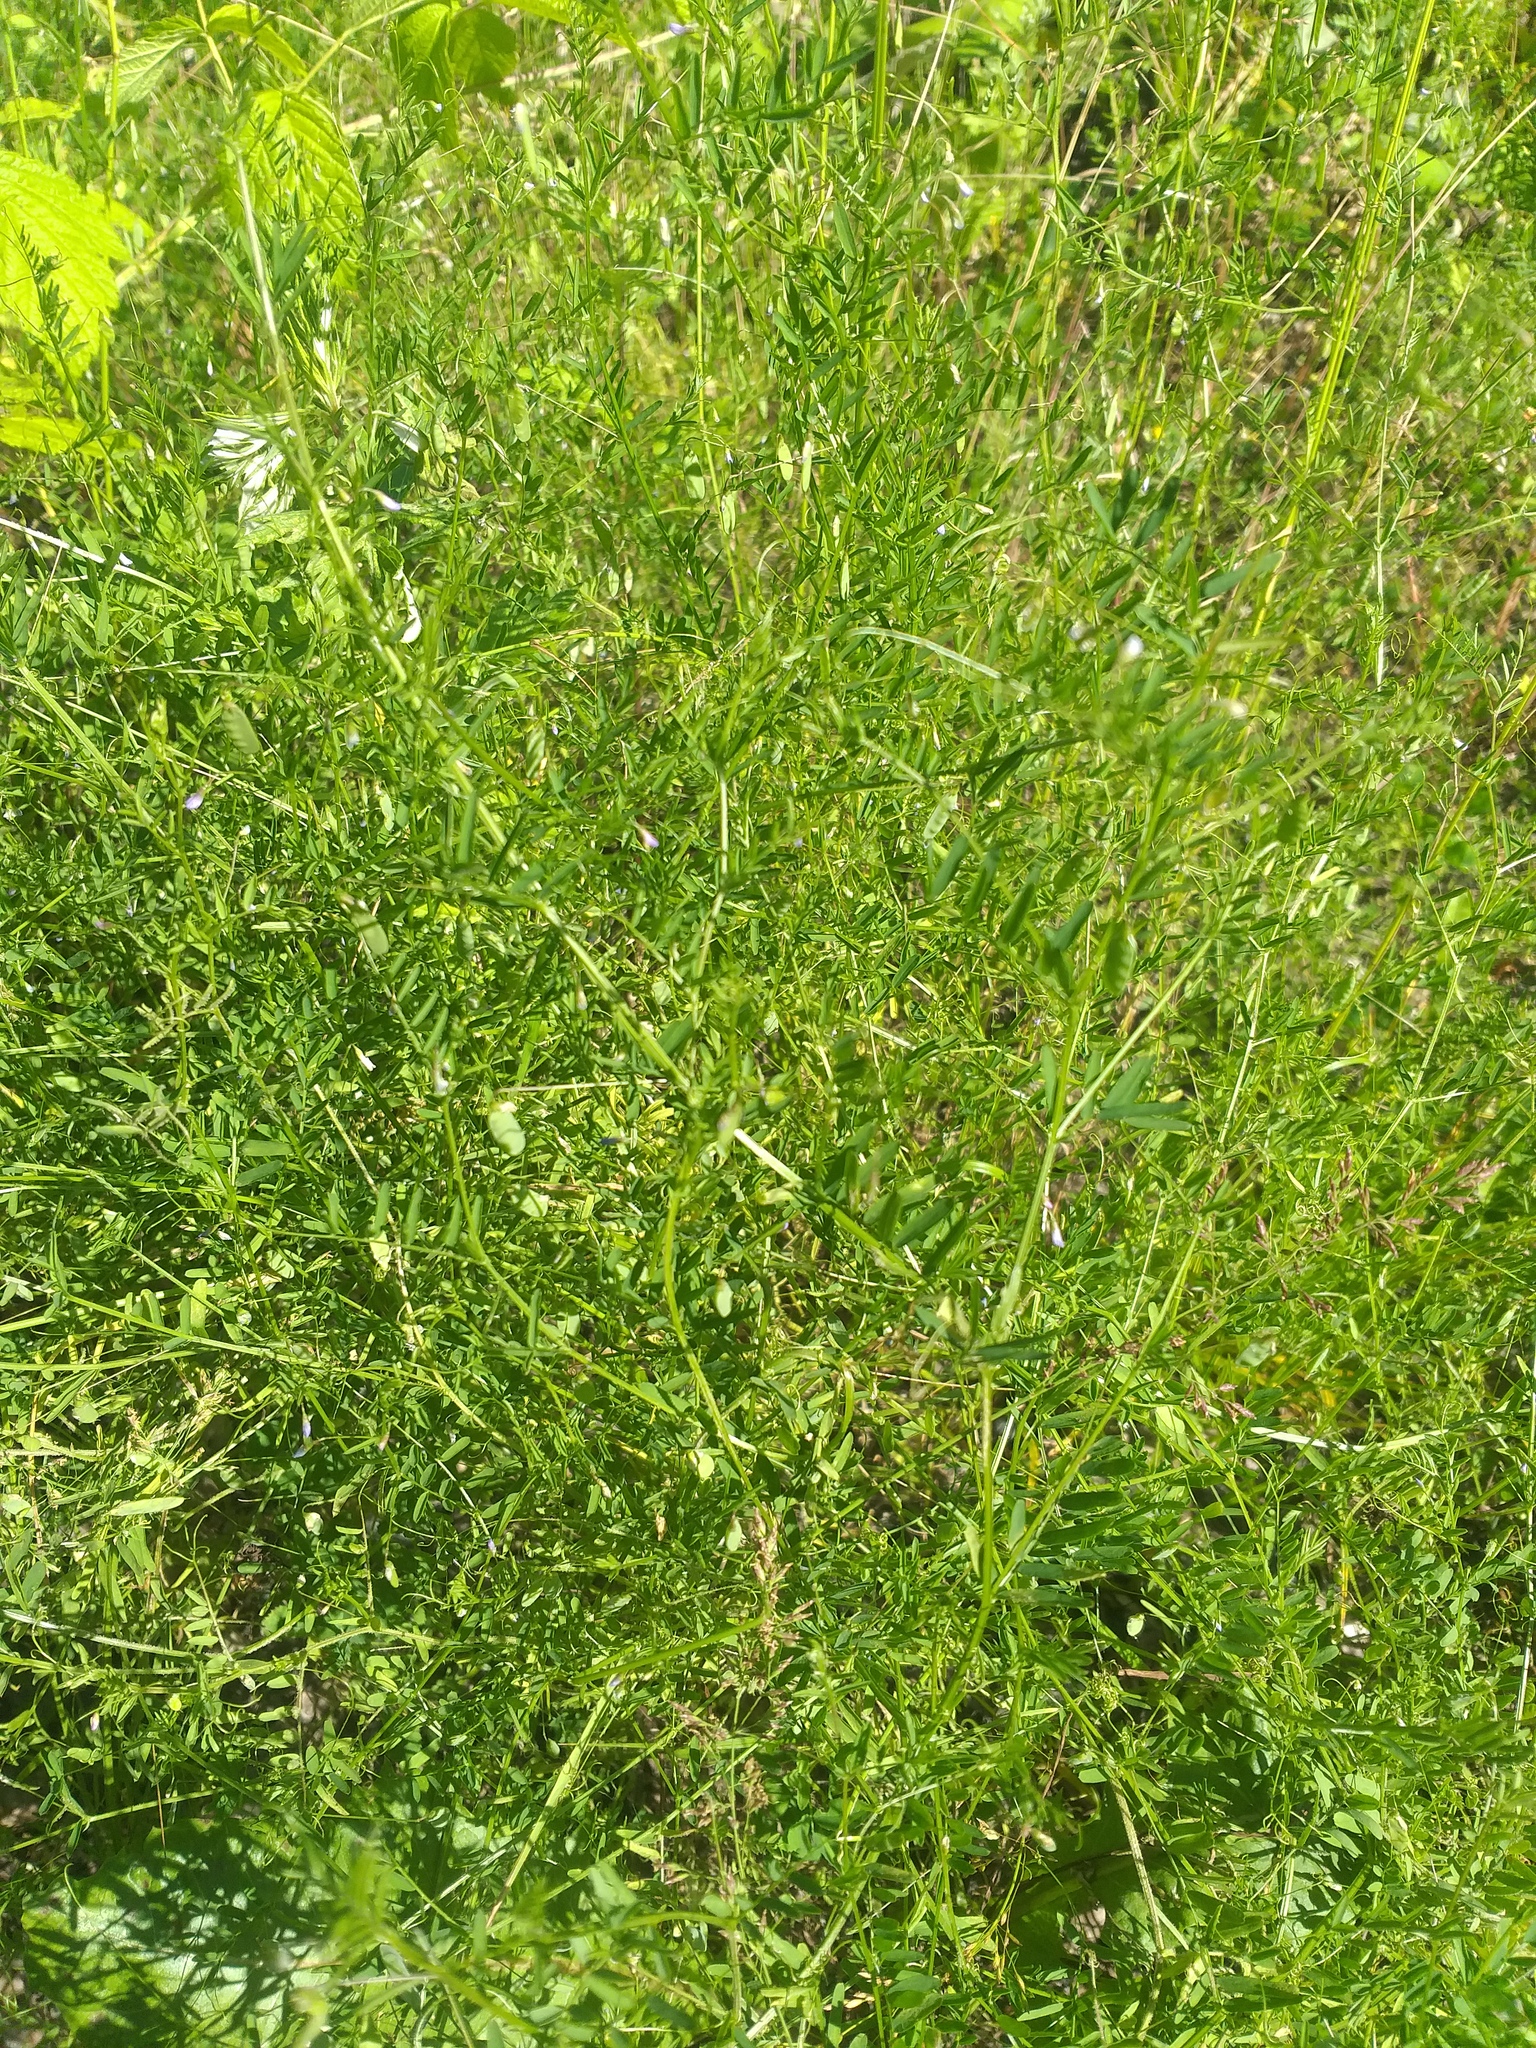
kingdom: Plantae
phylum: Tracheophyta
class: Magnoliopsida
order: Fabales
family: Fabaceae
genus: Vicia
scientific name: Vicia tetrasperma
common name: Smooth tare
